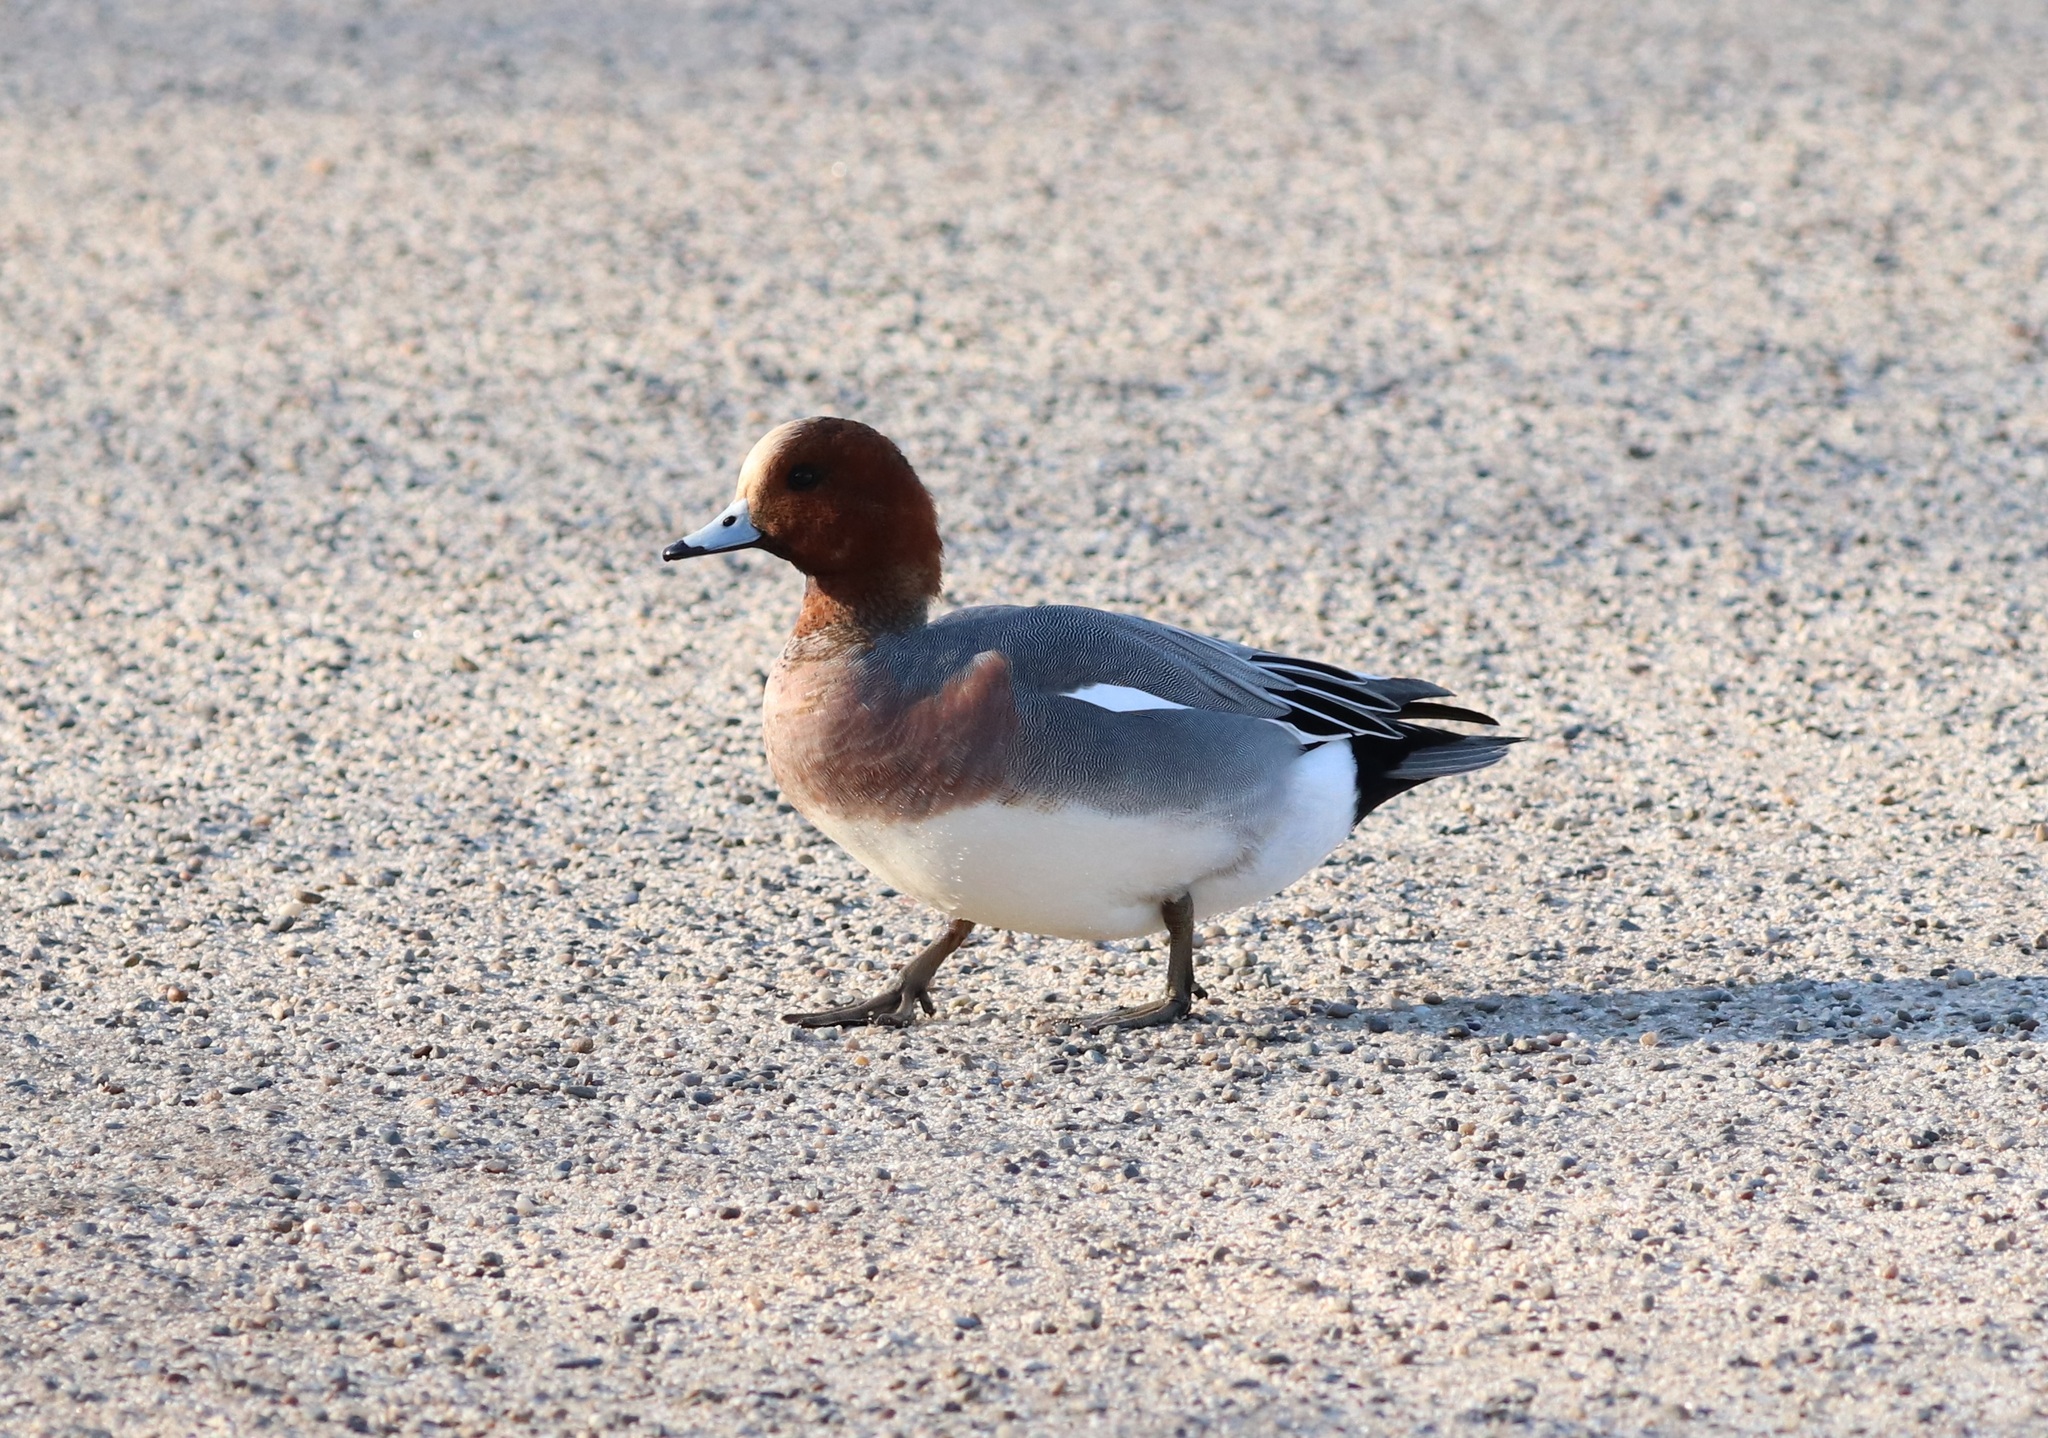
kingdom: Animalia
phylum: Chordata
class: Aves
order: Anseriformes
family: Anatidae
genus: Mareca
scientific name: Mareca penelope
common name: Eurasian wigeon
